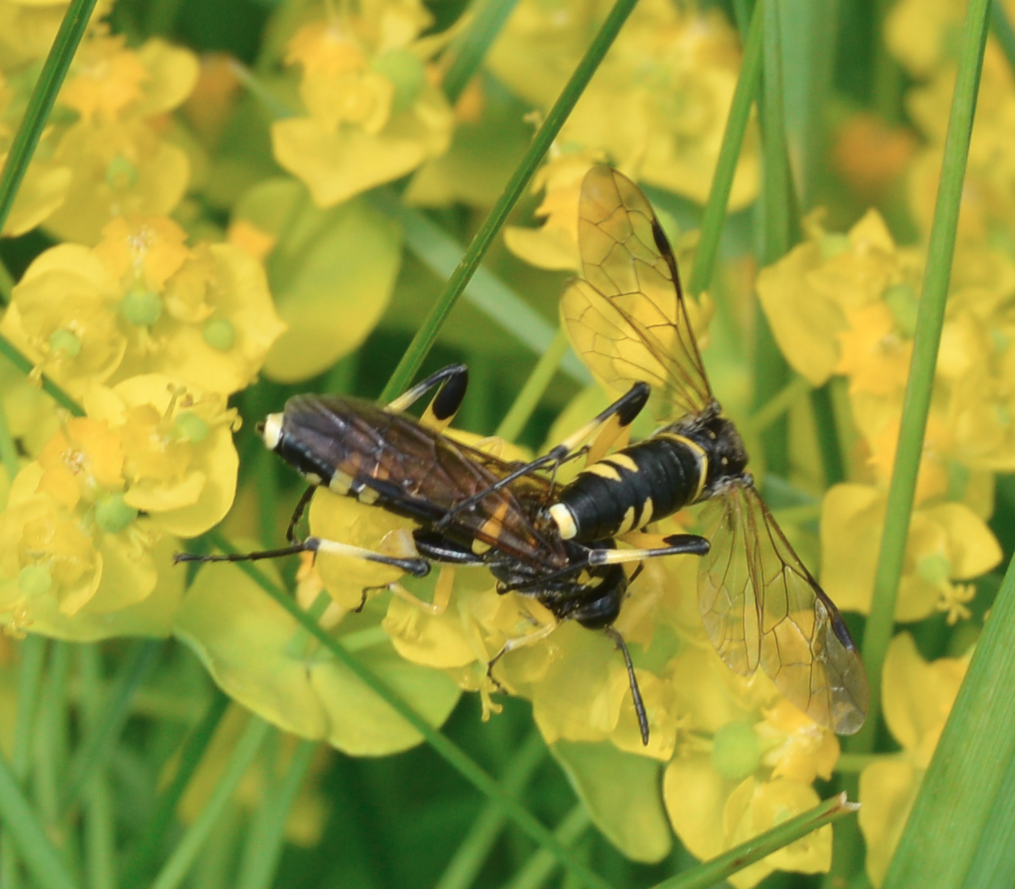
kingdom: Animalia
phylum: Arthropoda
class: Insecta
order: Hymenoptera
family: Tenthredinidae
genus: Macrophya
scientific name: Macrophya montana
